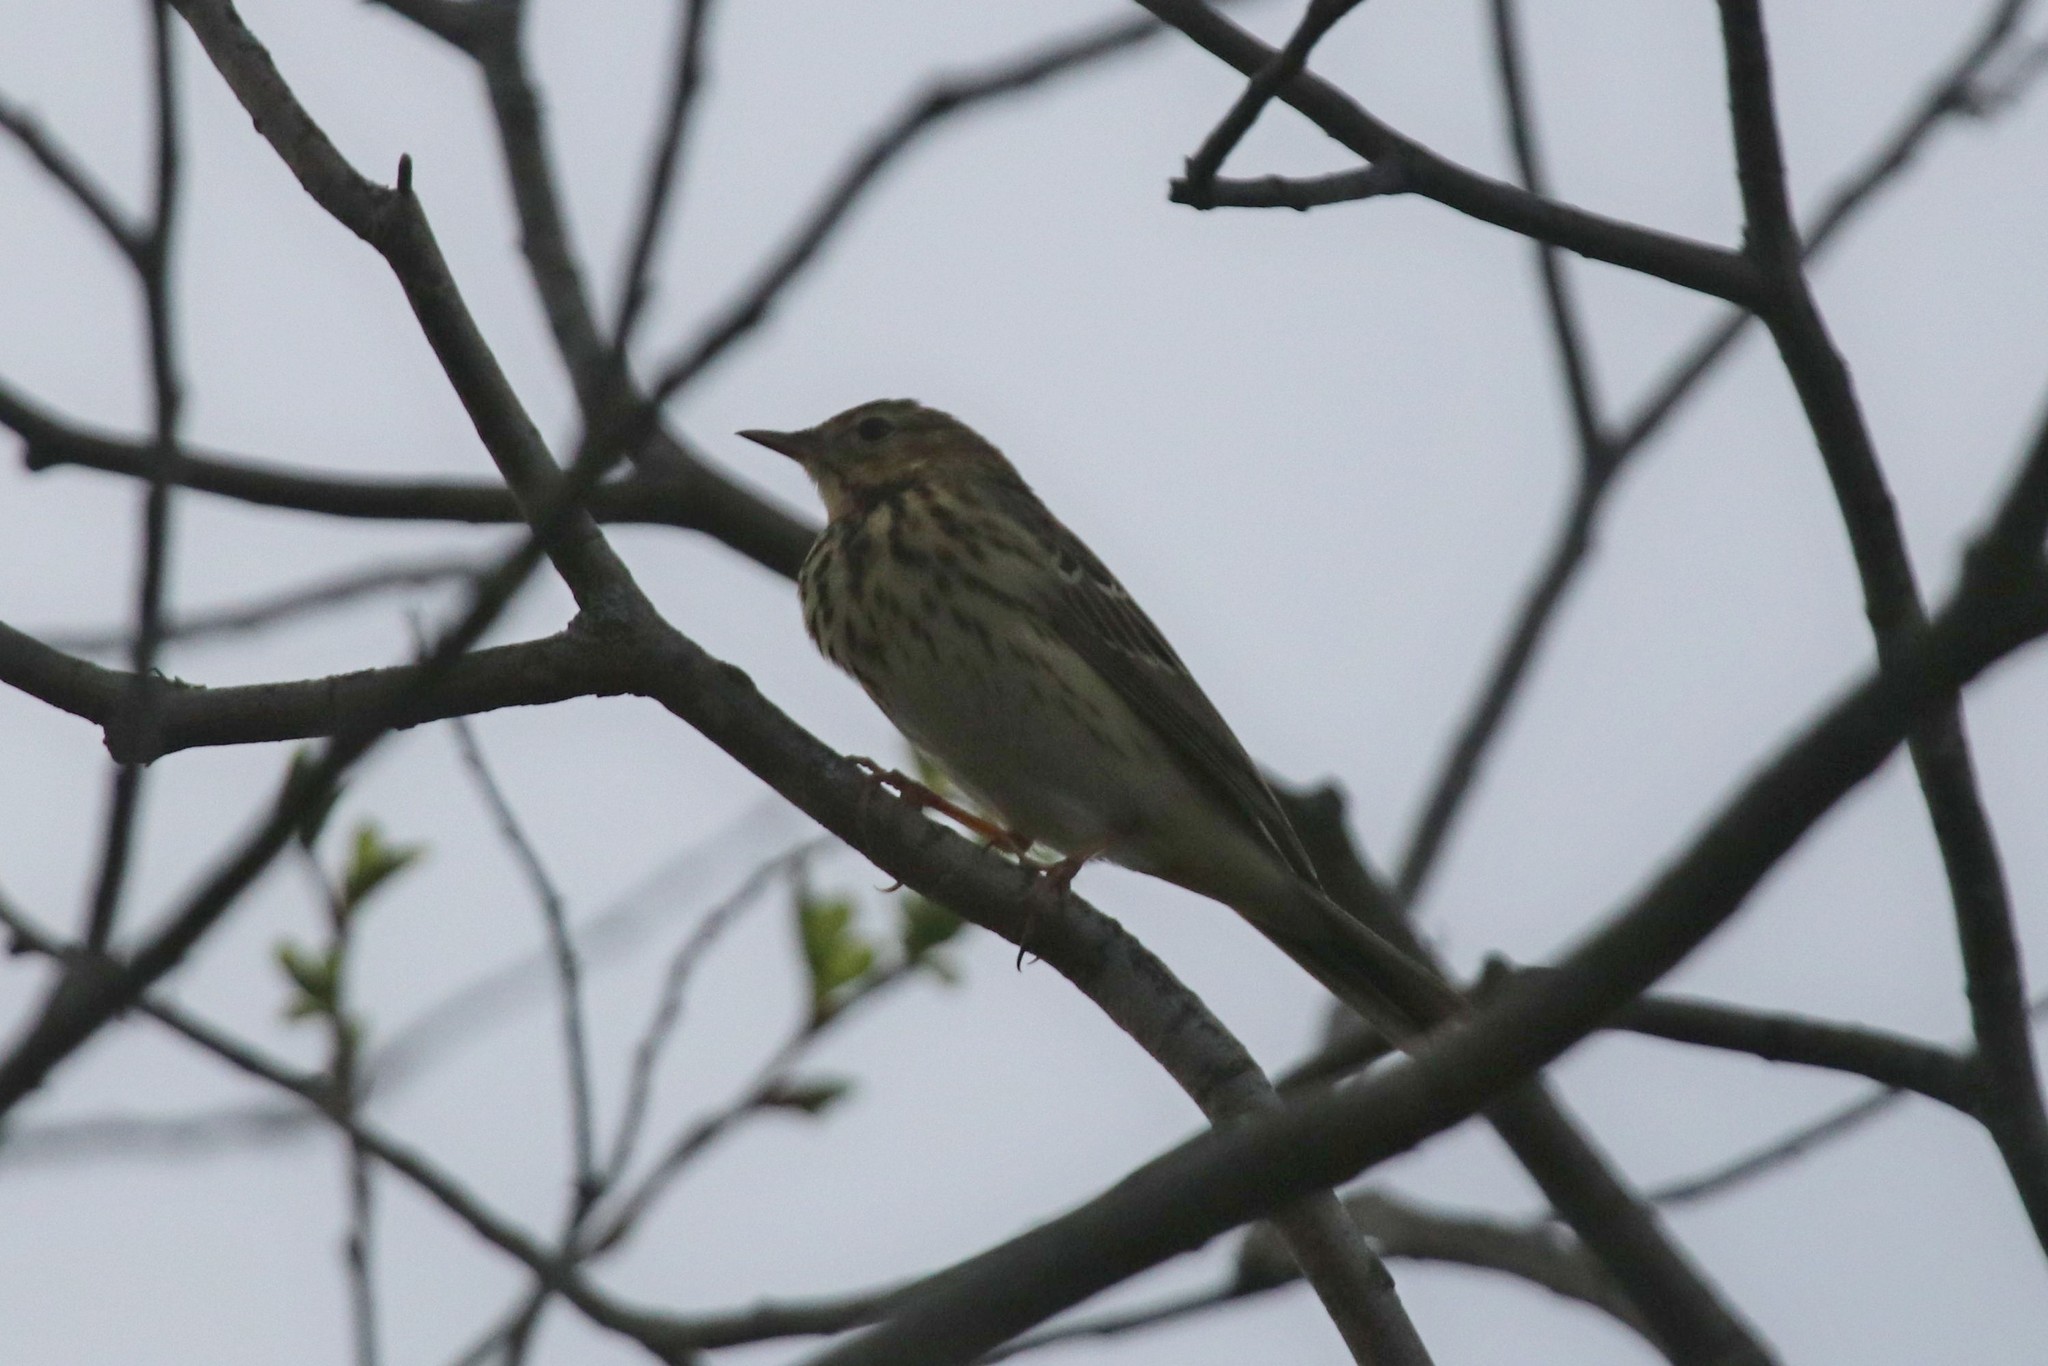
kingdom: Animalia
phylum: Chordata
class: Aves
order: Passeriformes
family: Motacillidae
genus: Anthus
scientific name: Anthus trivialis
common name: Tree pipit
